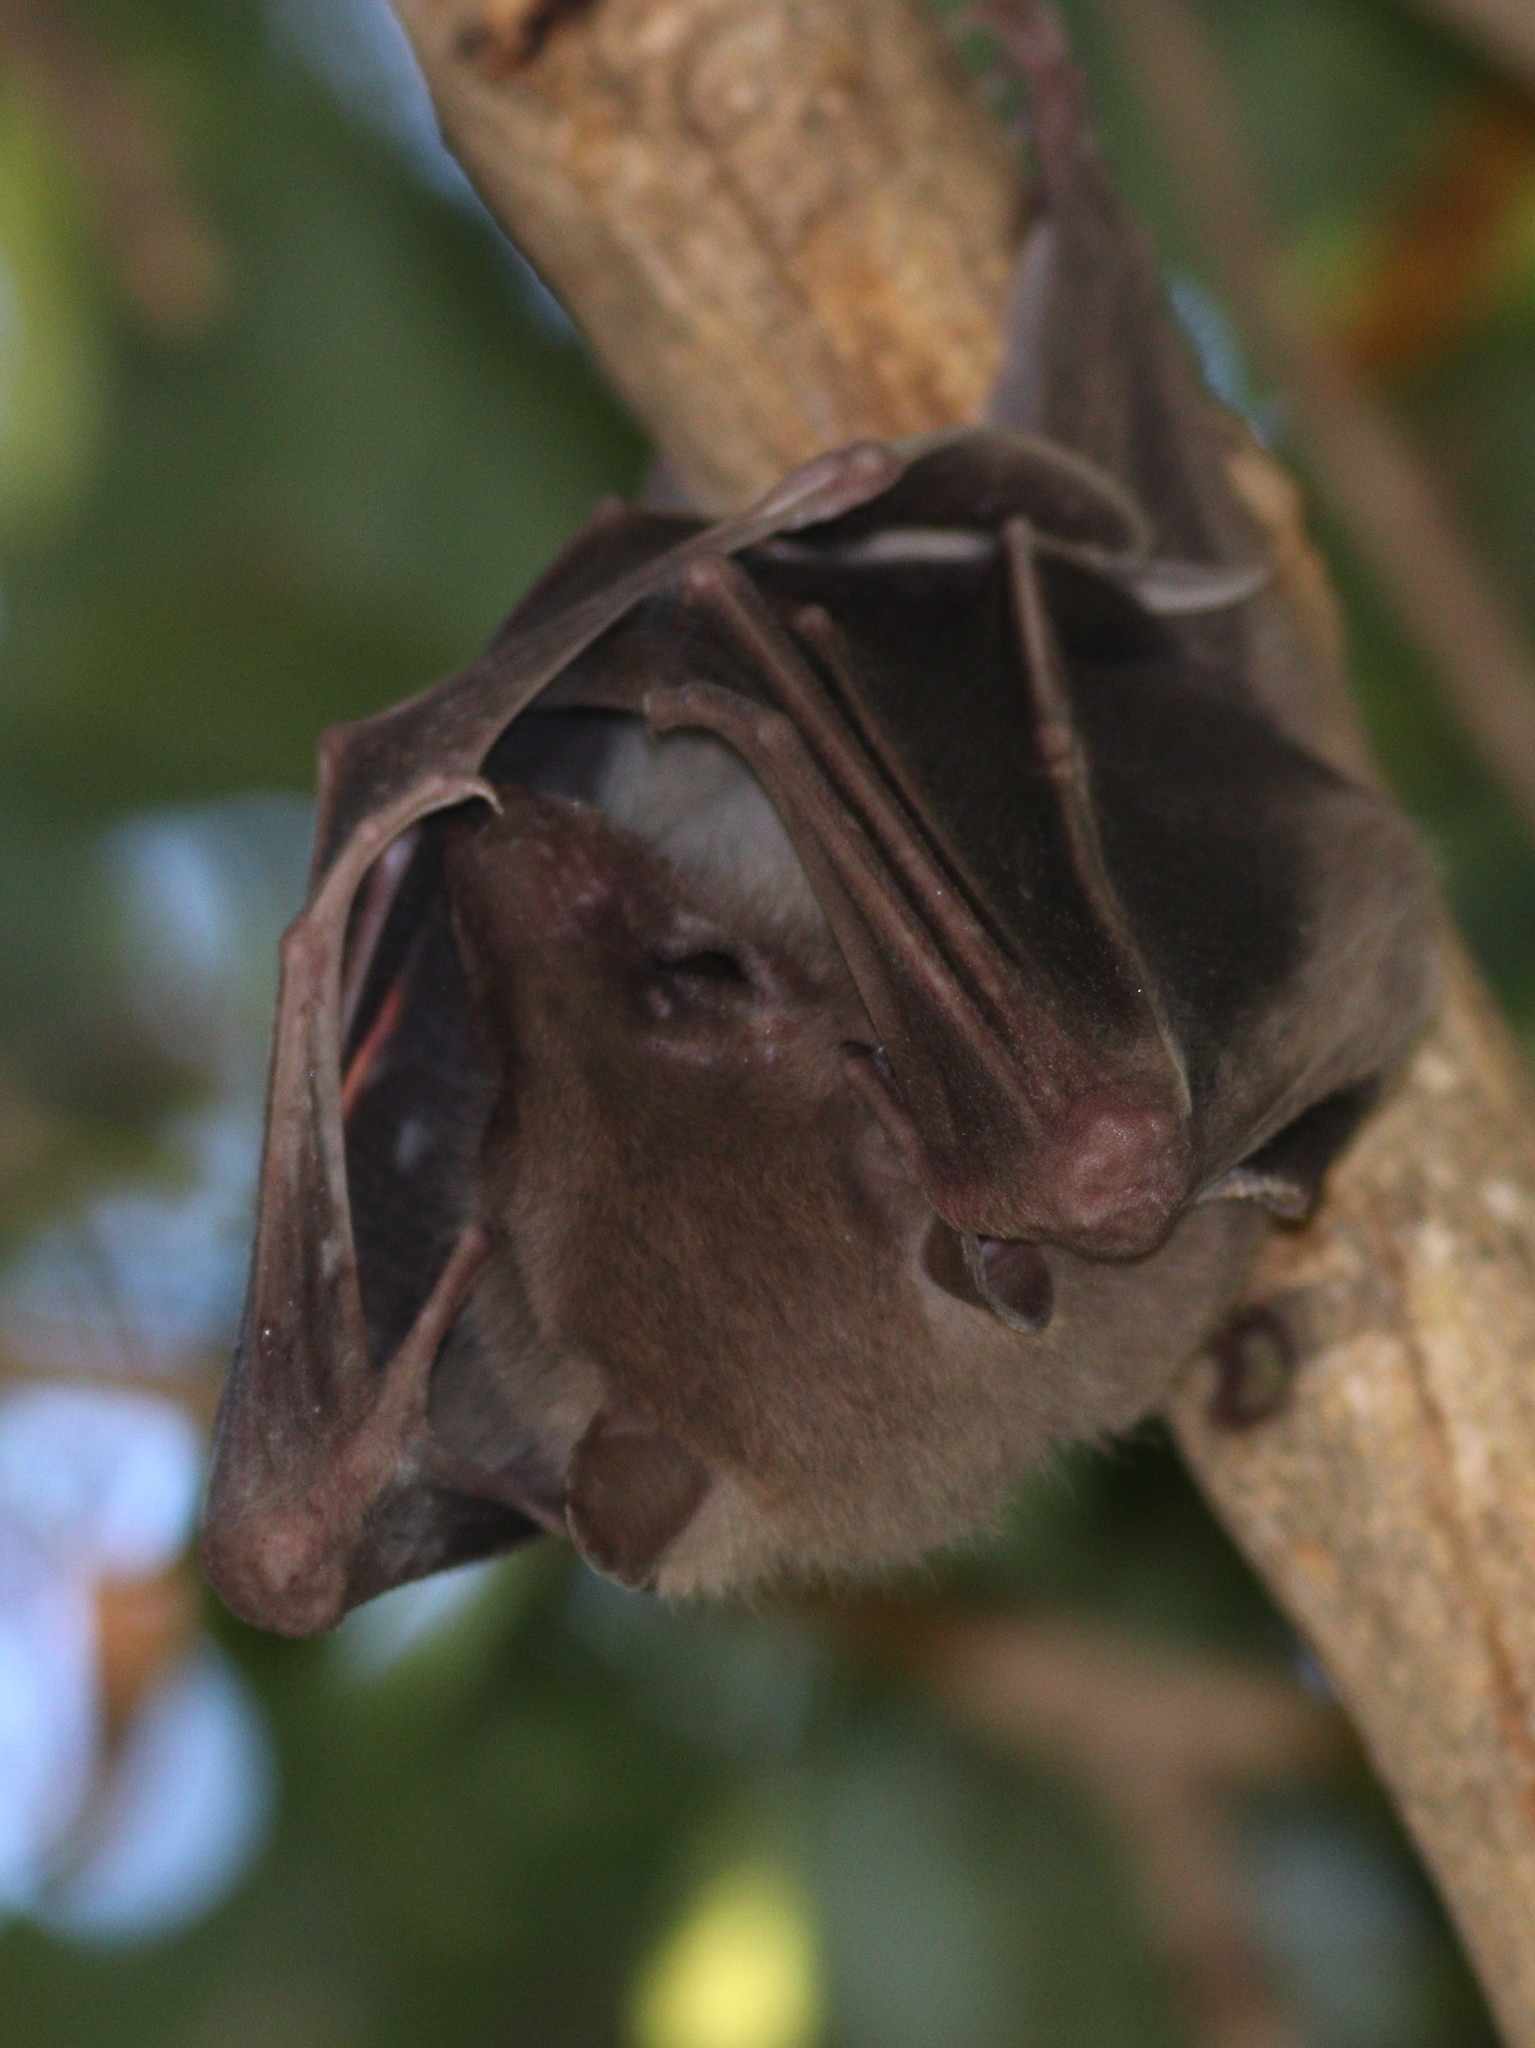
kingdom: Animalia
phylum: Chordata
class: Mammalia
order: Chiroptera
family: Pteropodidae
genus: Rousettus
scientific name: Rousettus aegyptiacus
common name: Egyptian rousette
